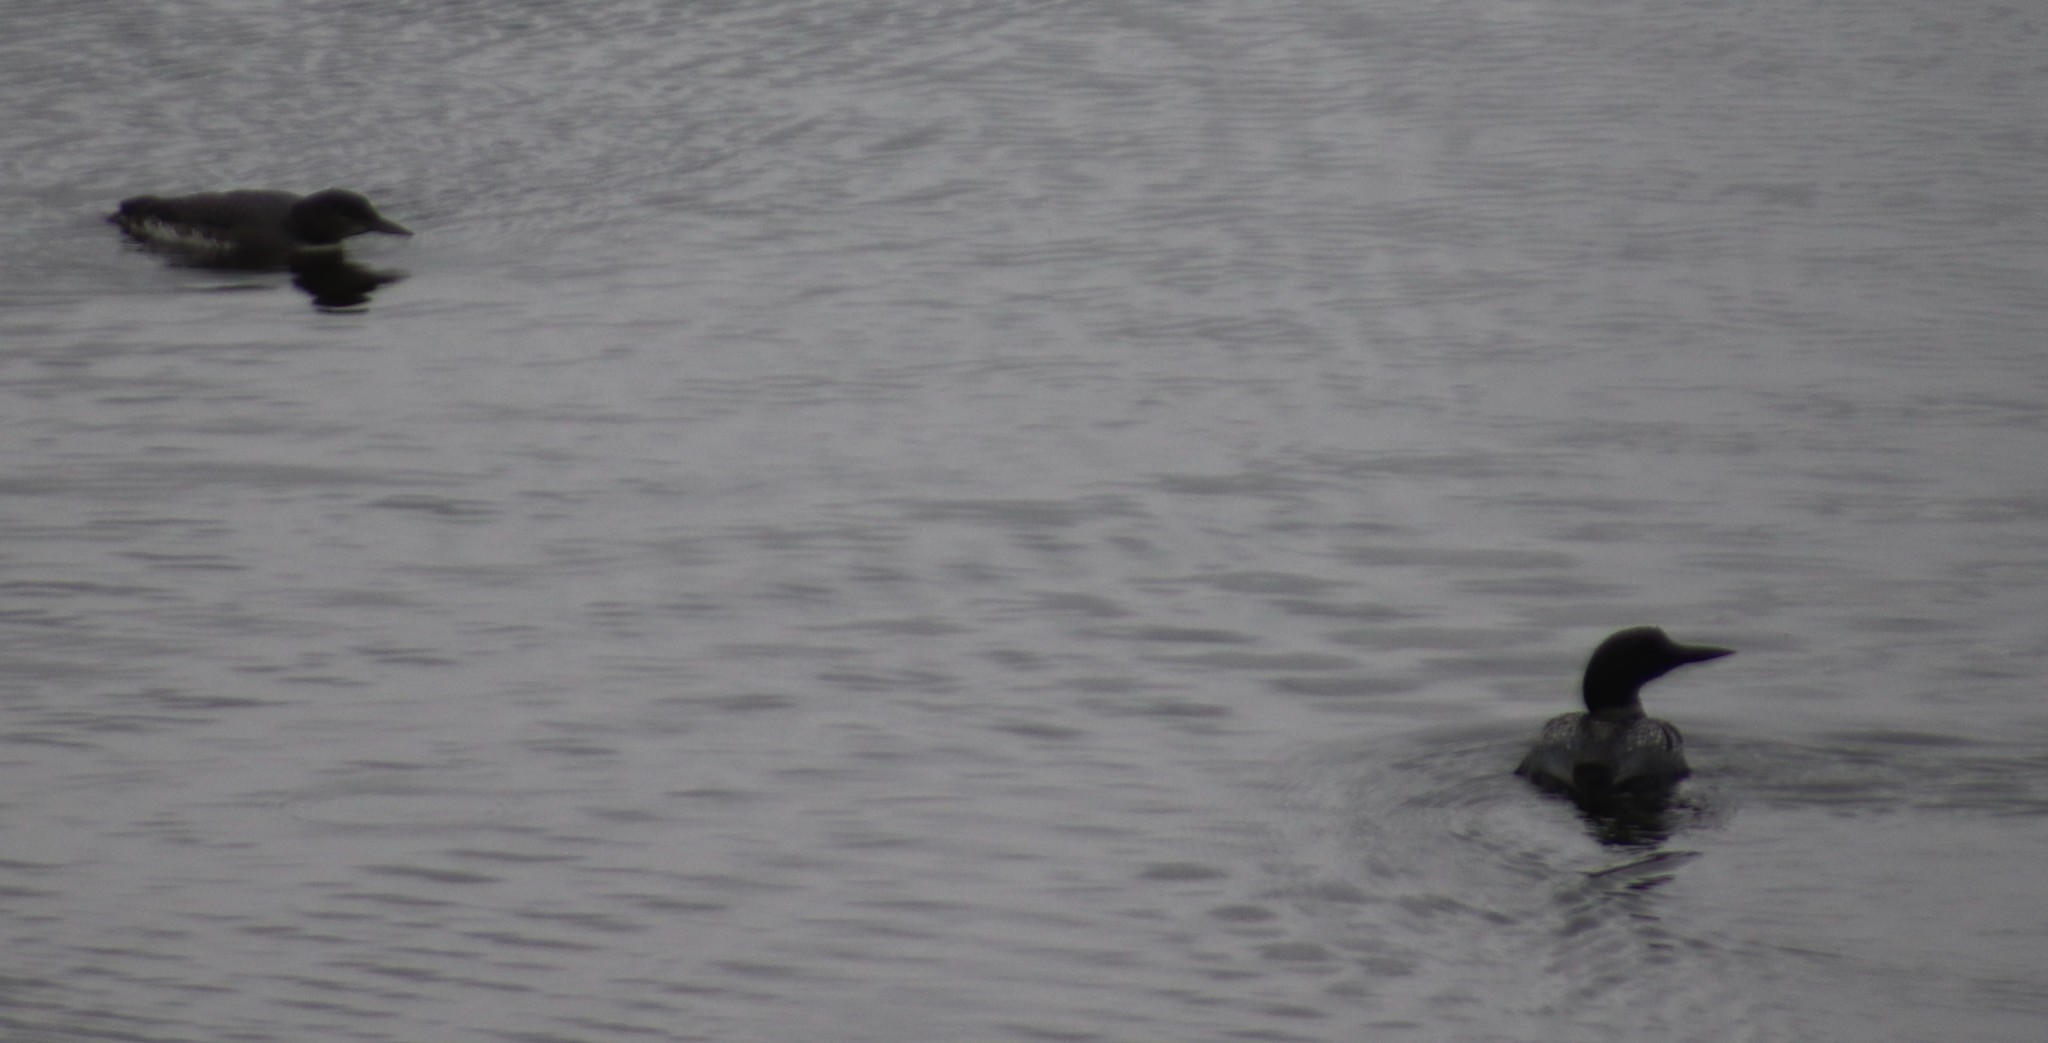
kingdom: Animalia
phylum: Chordata
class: Aves
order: Gaviiformes
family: Gaviidae
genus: Gavia
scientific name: Gavia immer
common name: Common loon
